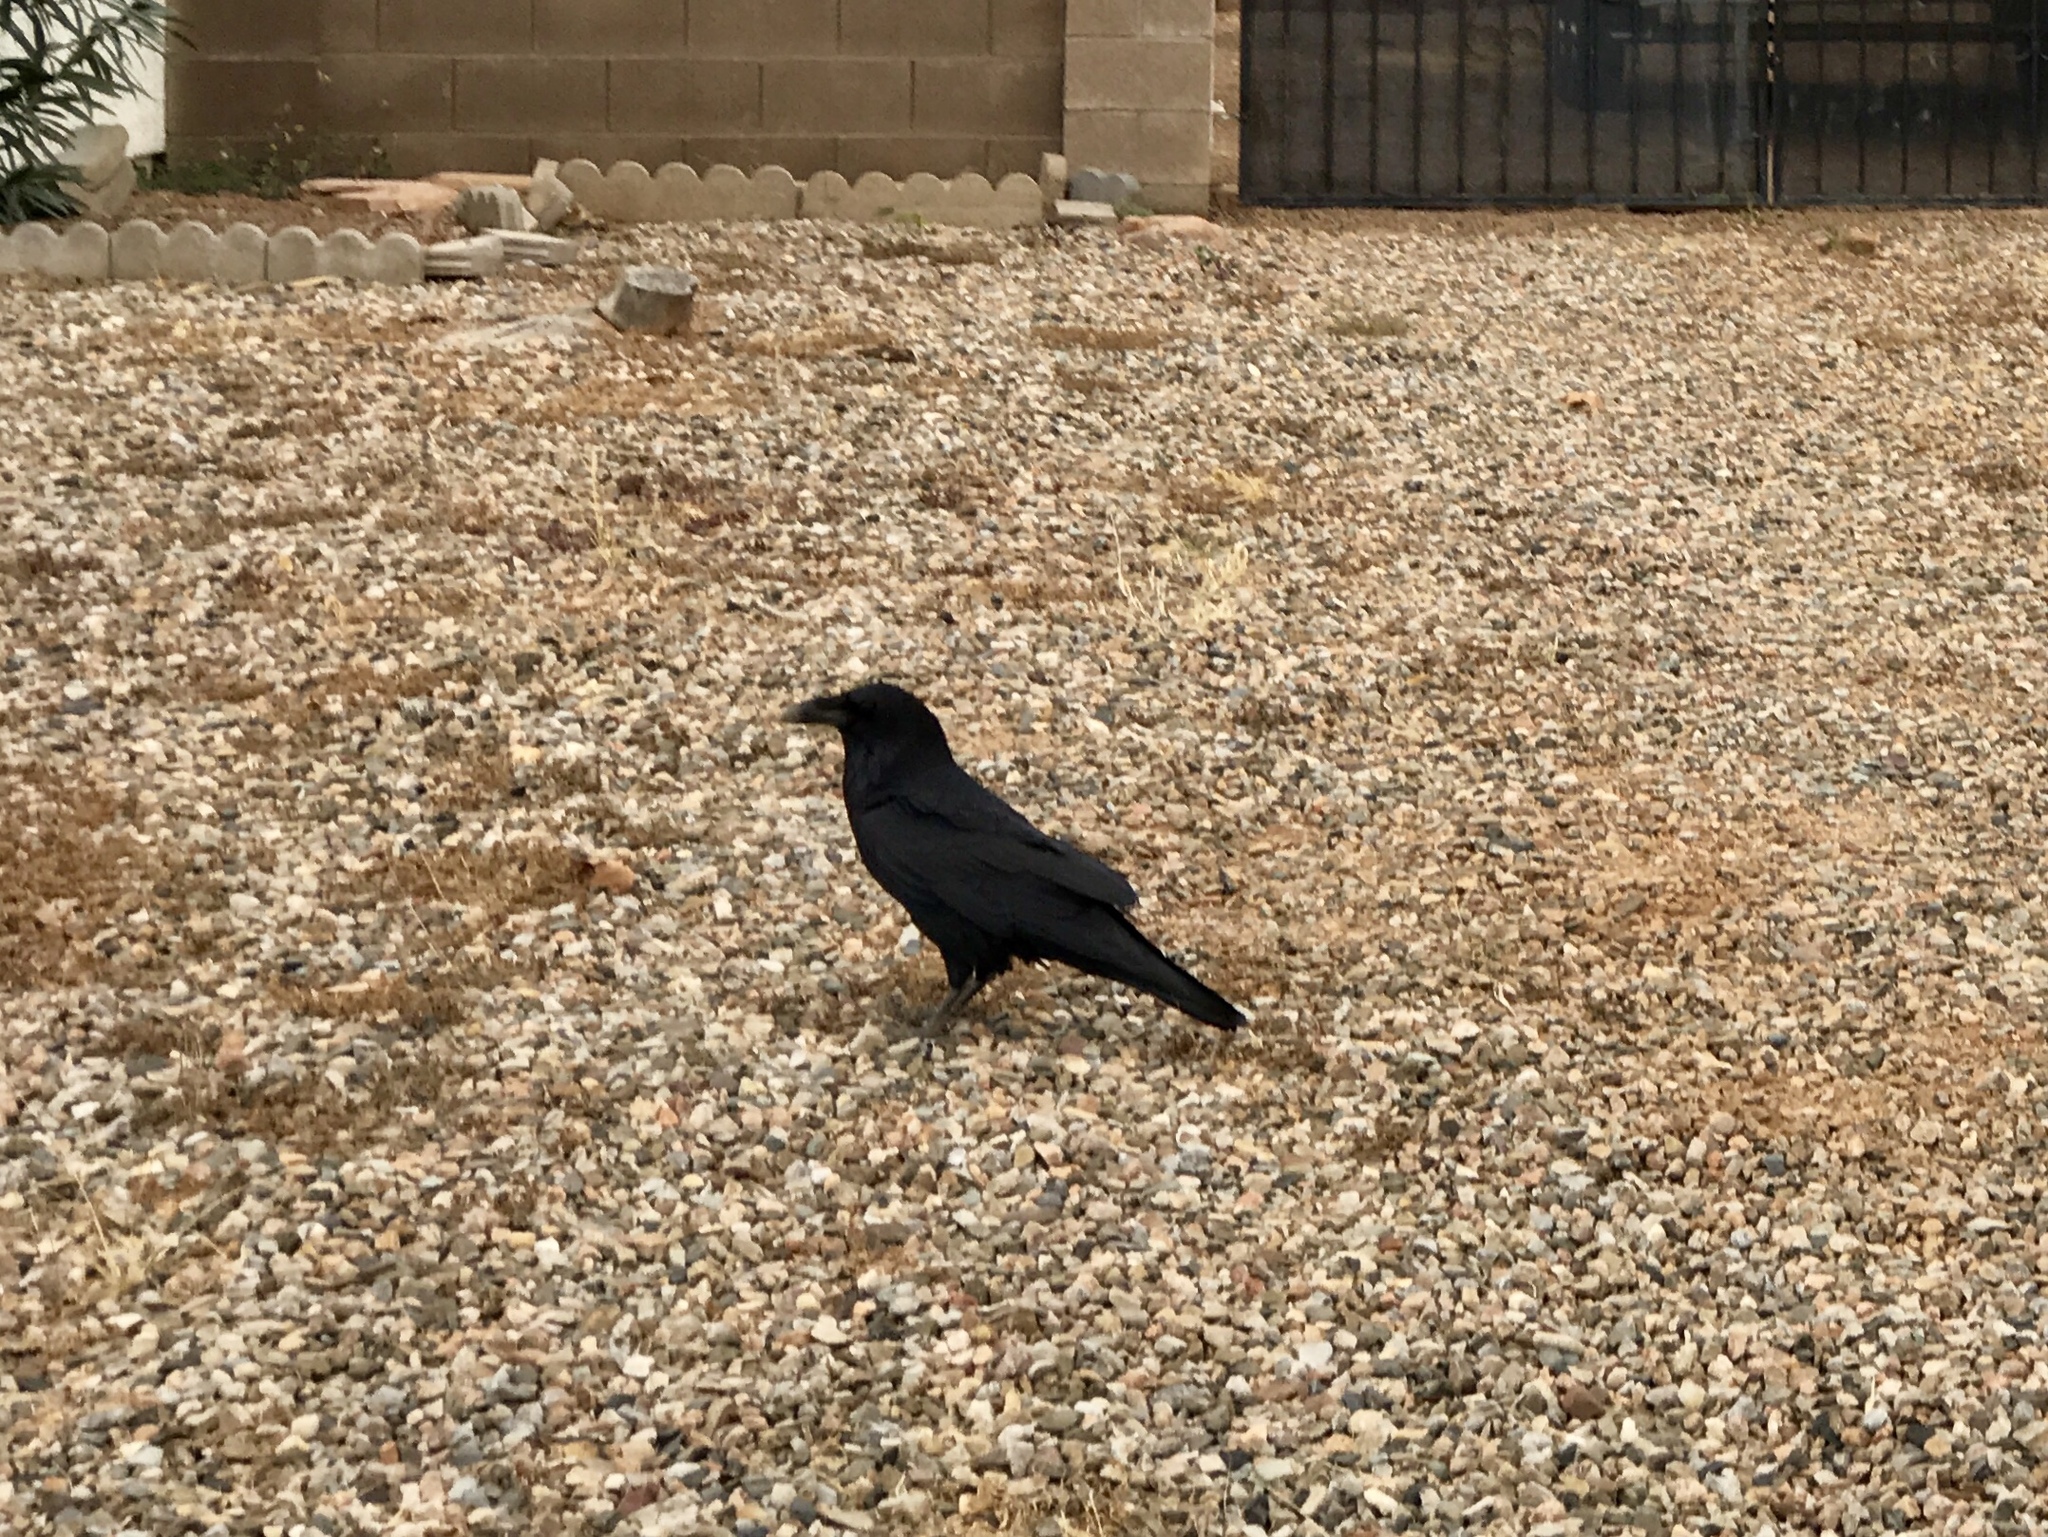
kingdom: Animalia
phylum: Chordata
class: Aves
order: Passeriformes
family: Corvidae
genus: Corvus
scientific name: Corvus corax
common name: Common raven
